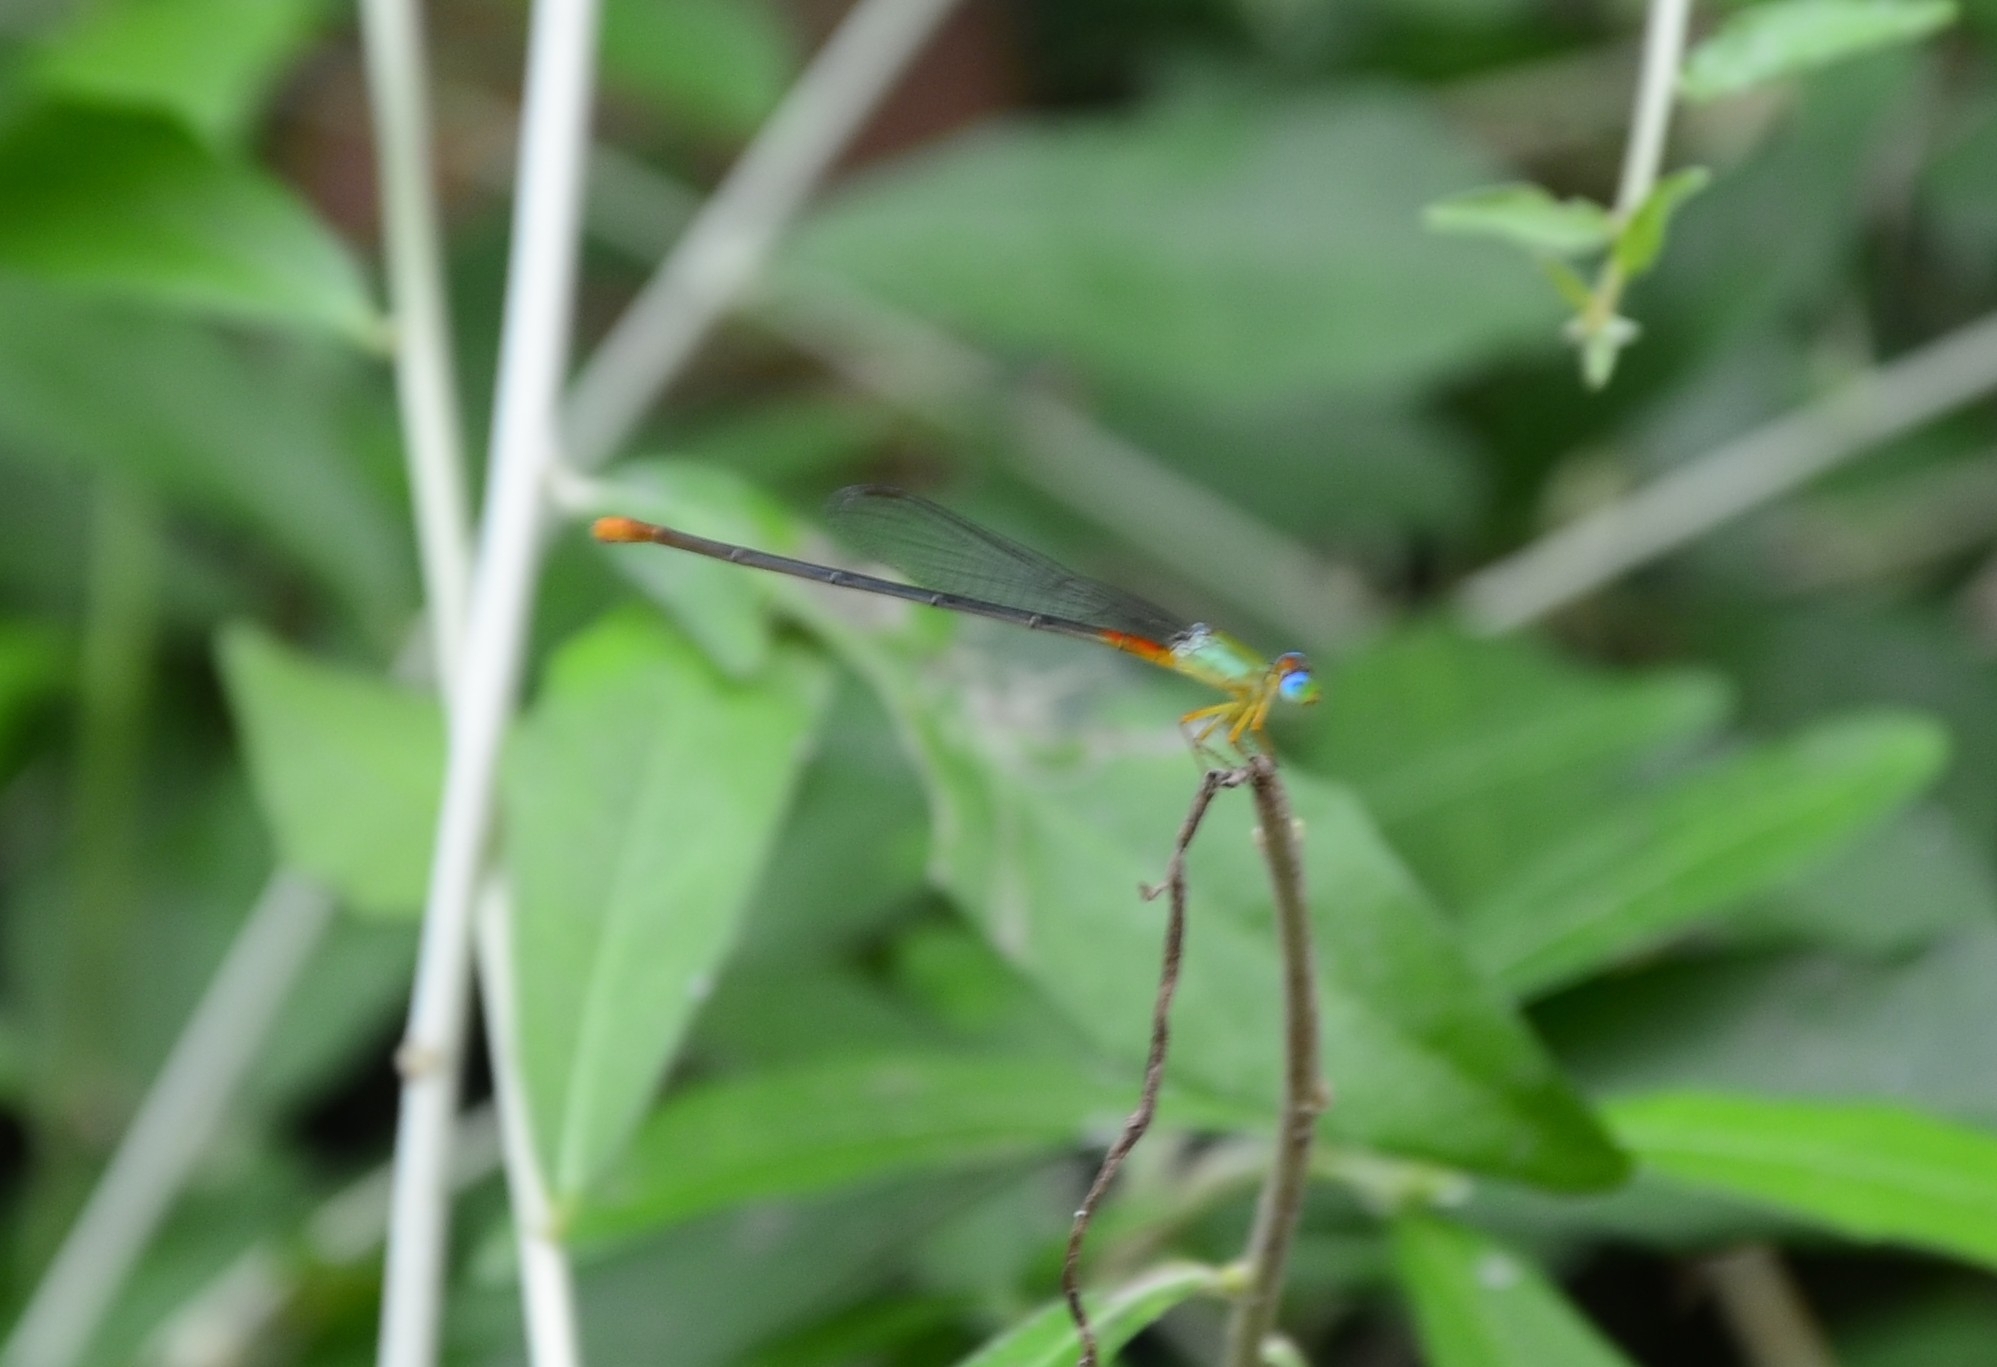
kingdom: Animalia
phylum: Arthropoda
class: Insecta
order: Odonata
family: Coenagrionidae
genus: Ceriagrion
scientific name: Ceriagrion cerinorubellum
